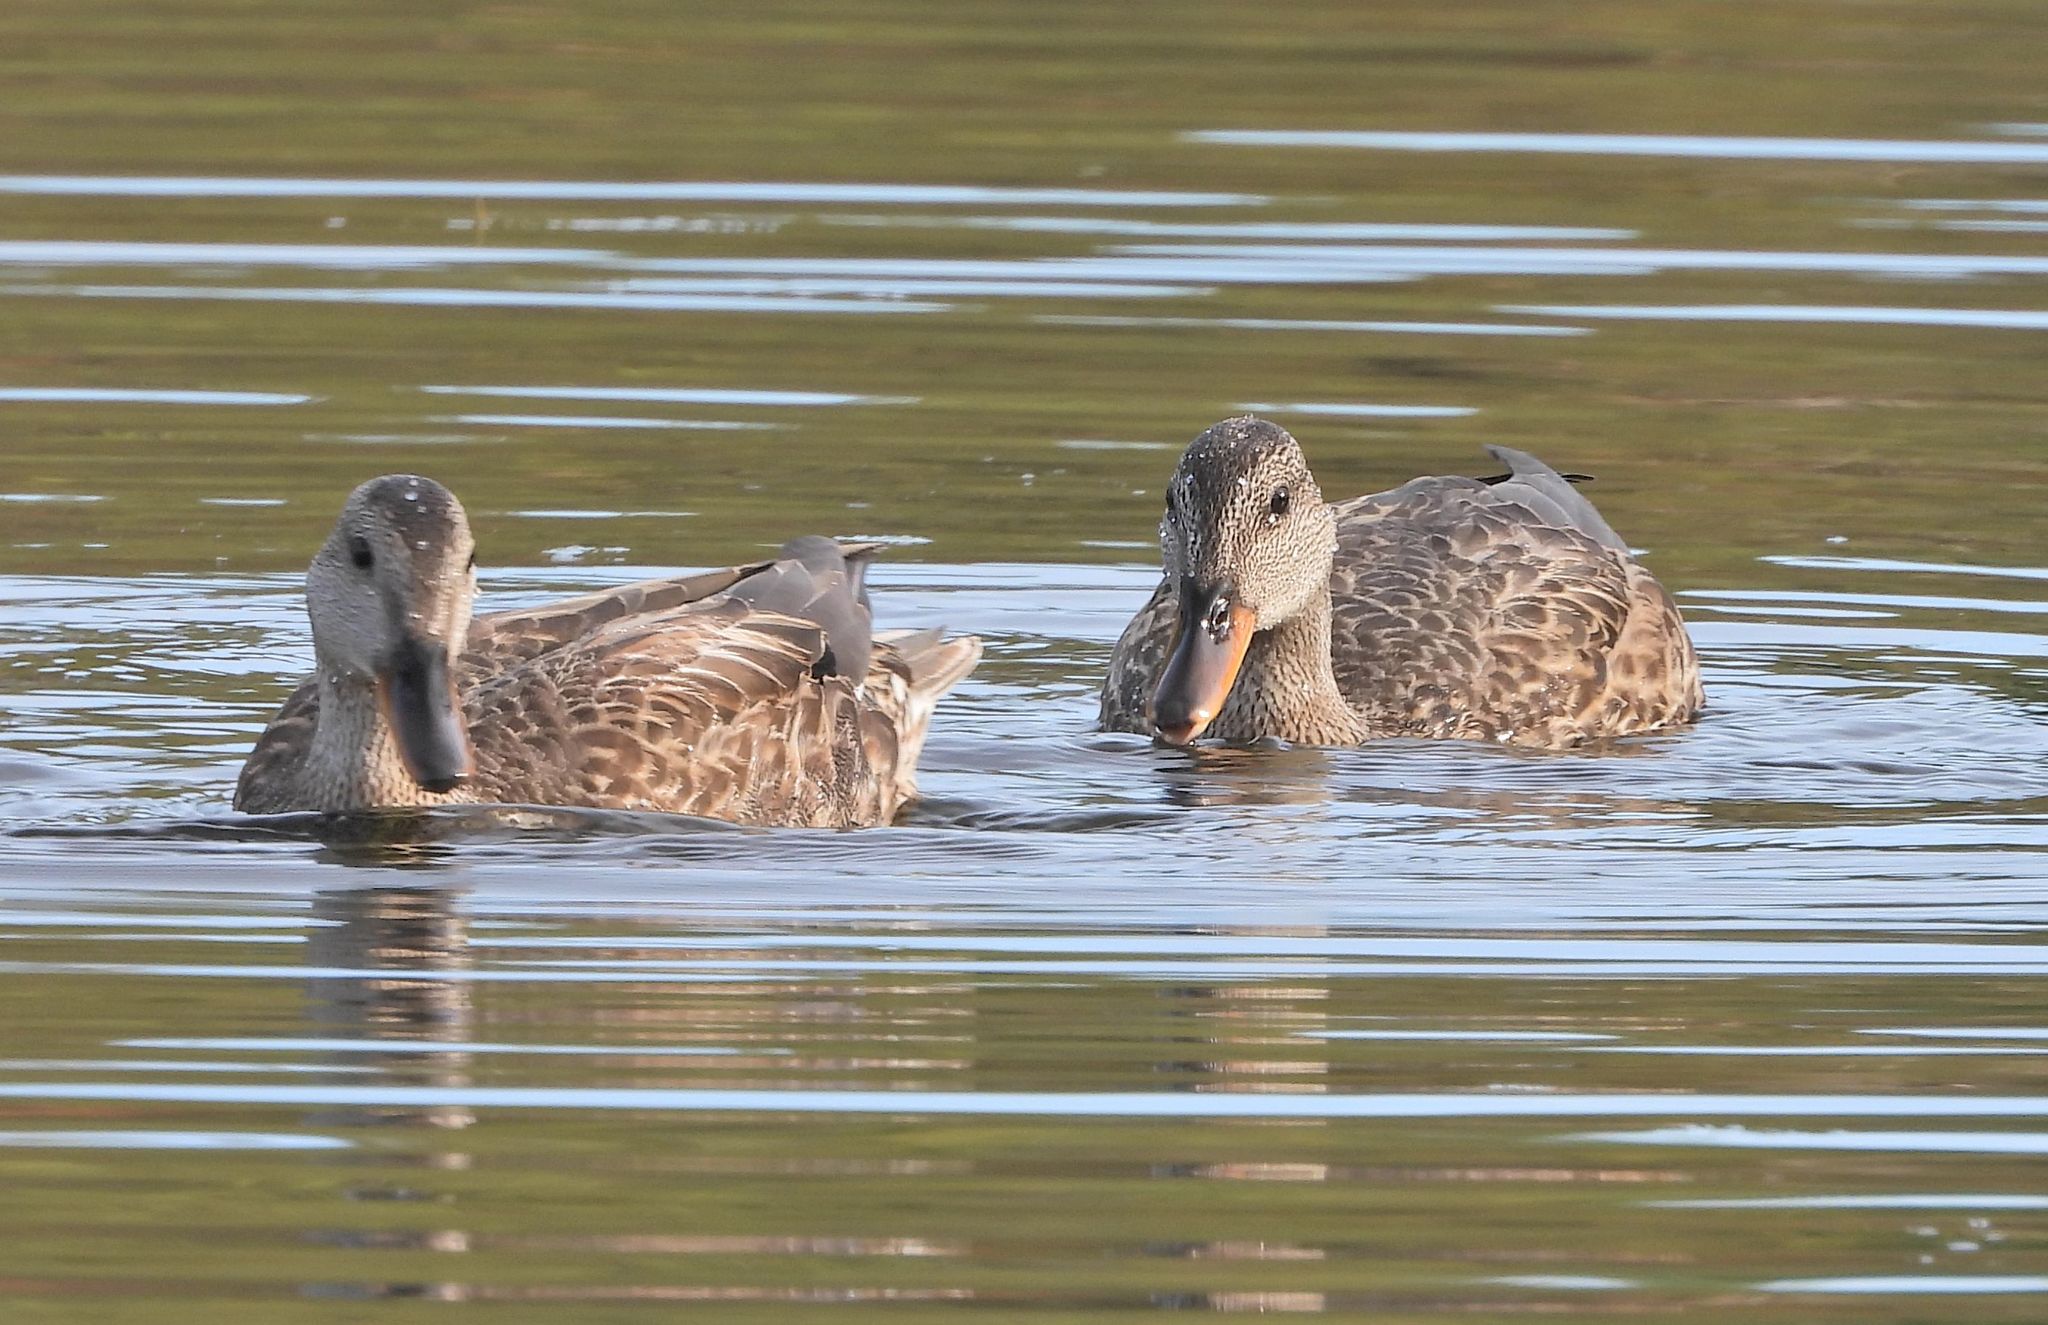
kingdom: Animalia
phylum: Chordata
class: Aves
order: Anseriformes
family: Anatidae
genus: Anas
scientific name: Anas platyrhynchos
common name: Mallard
